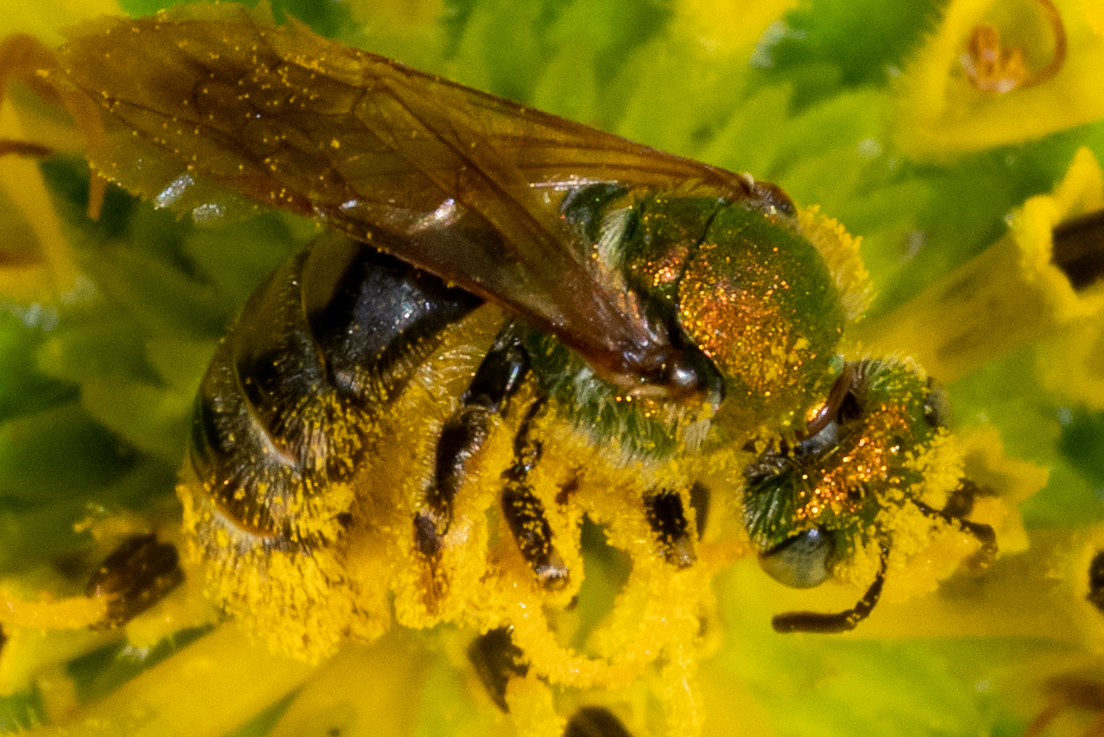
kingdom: Animalia
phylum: Arthropoda
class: Insecta
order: Hymenoptera
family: Halictidae
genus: Agapostemon
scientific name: Agapostemon virescens
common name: Bicolored striped sweat bee
